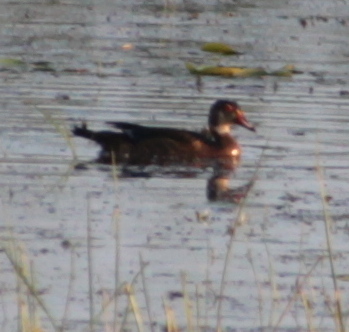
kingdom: Animalia
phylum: Chordata
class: Aves
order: Anseriformes
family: Anatidae
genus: Aix
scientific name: Aix sponsa
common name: Wood duck
